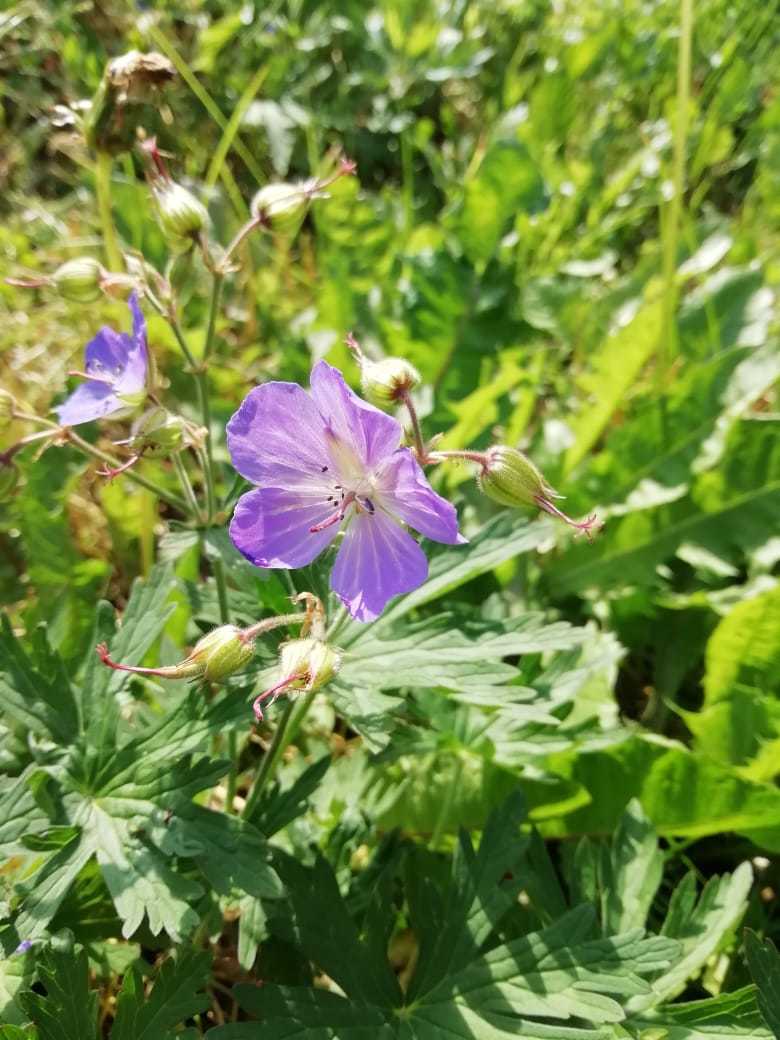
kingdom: Plantae
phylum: Tracheophyta
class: Magnoliopsida
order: Geraniales
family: Geraniaceae
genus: Geranium
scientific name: Geranium pratense
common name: Meadow crane's-bill
